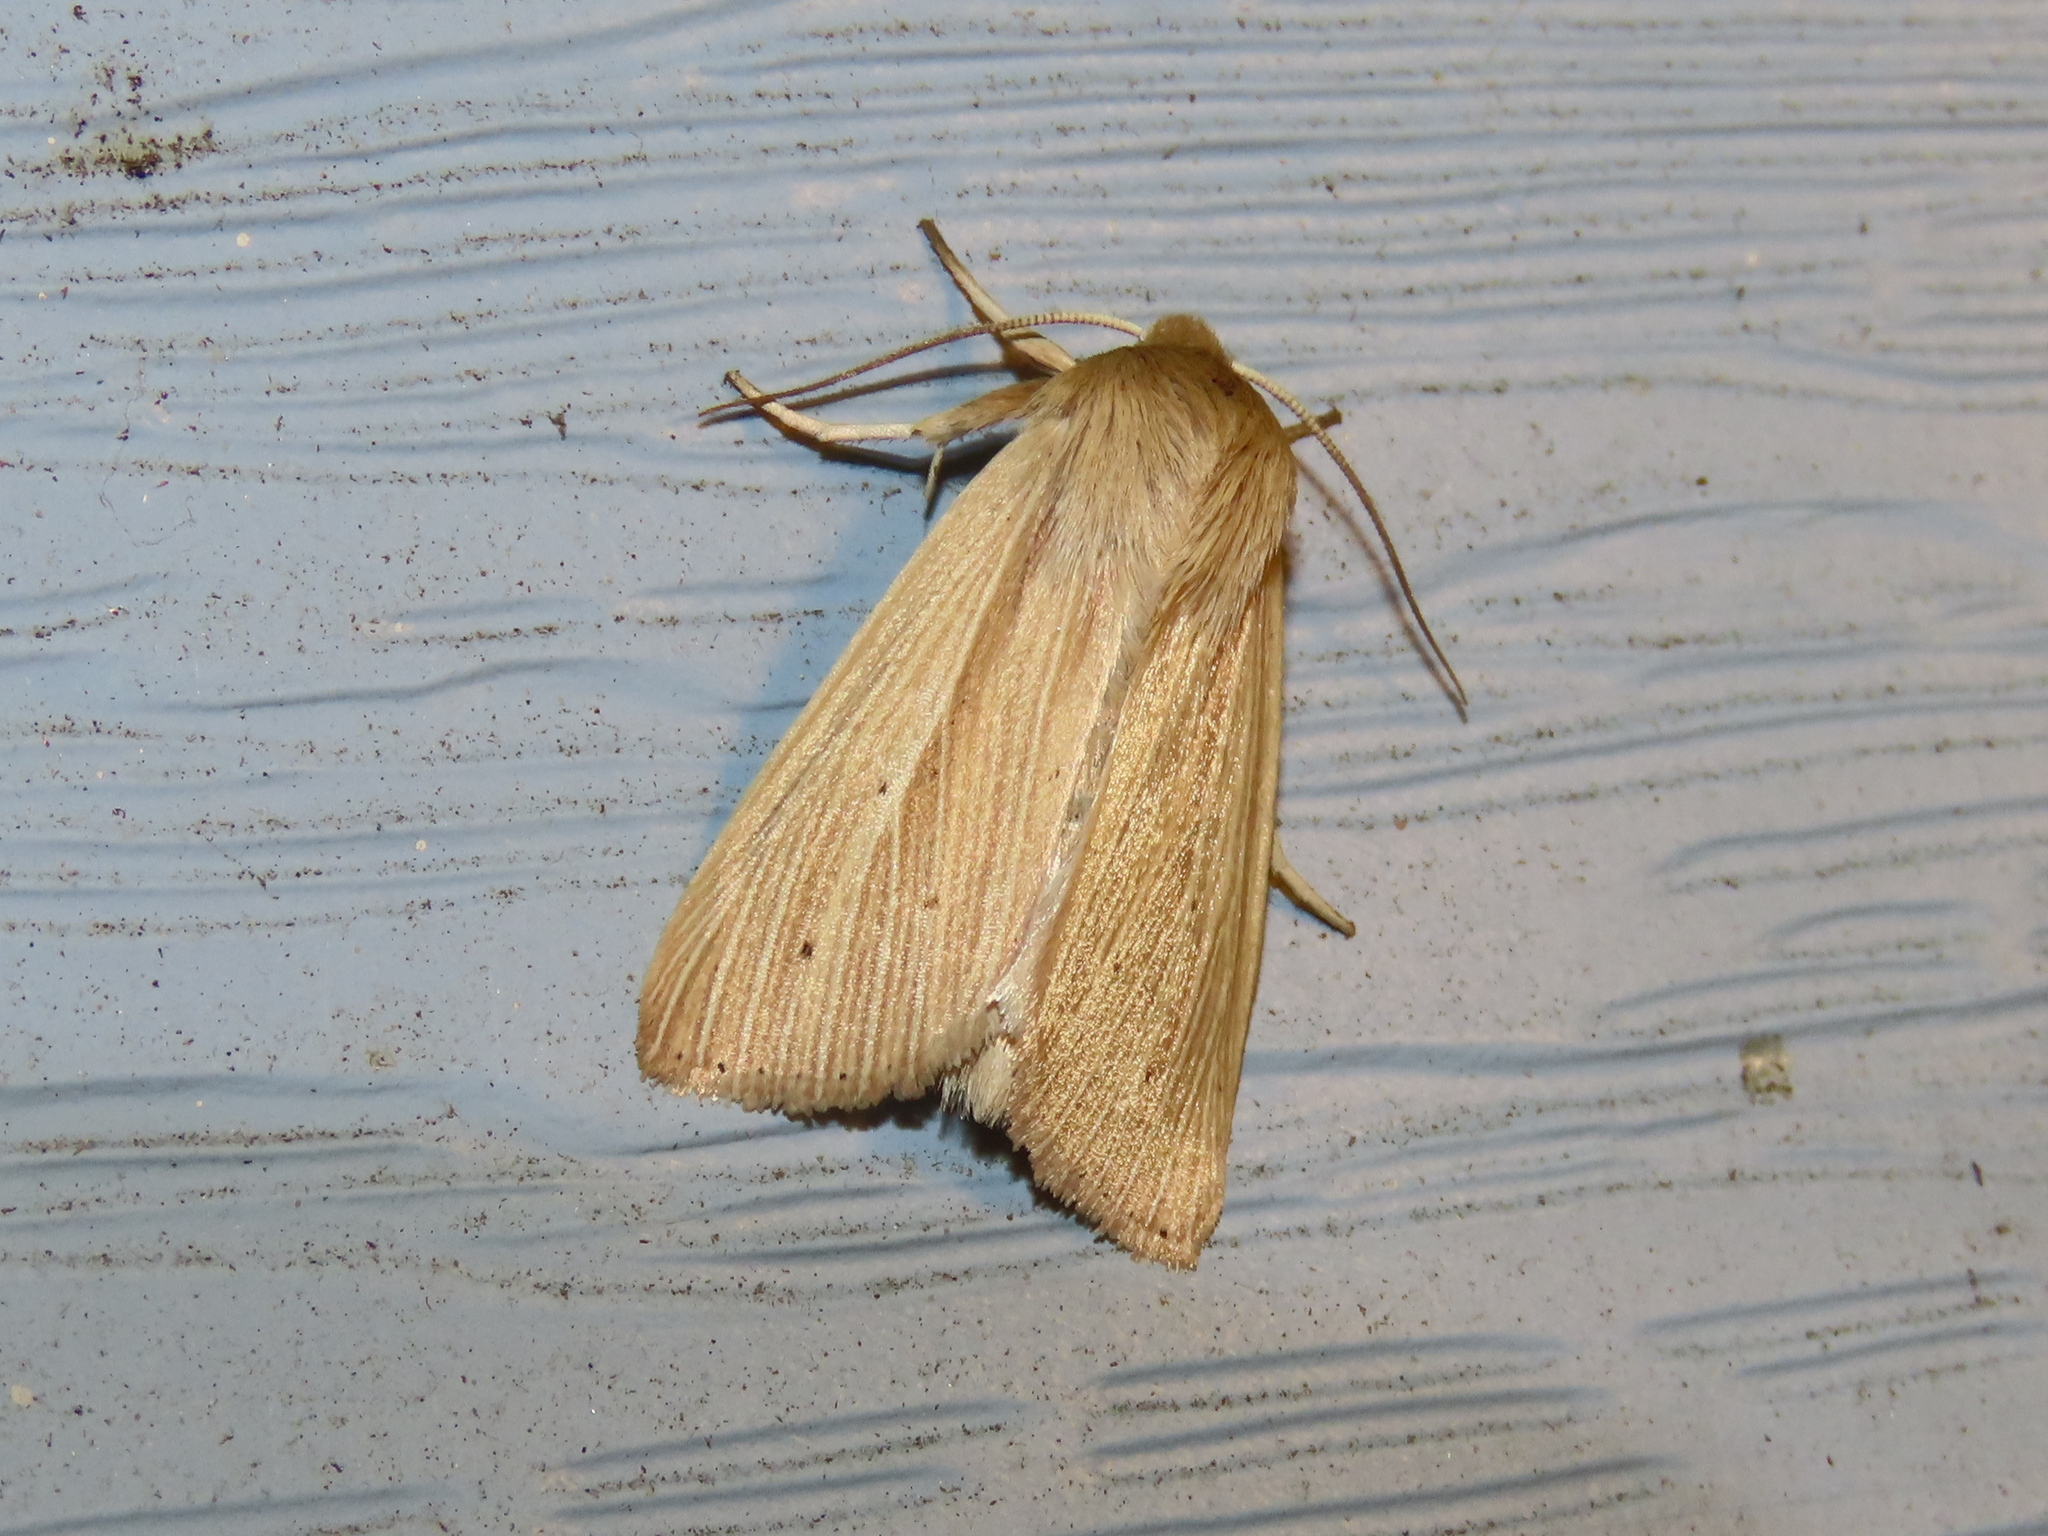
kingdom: Animalia
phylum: Arthropoda
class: Insecta
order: Lepidoptera
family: Noctuidae
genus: Mythimna
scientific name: Mythimna oxygala
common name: Lesser wainscot
